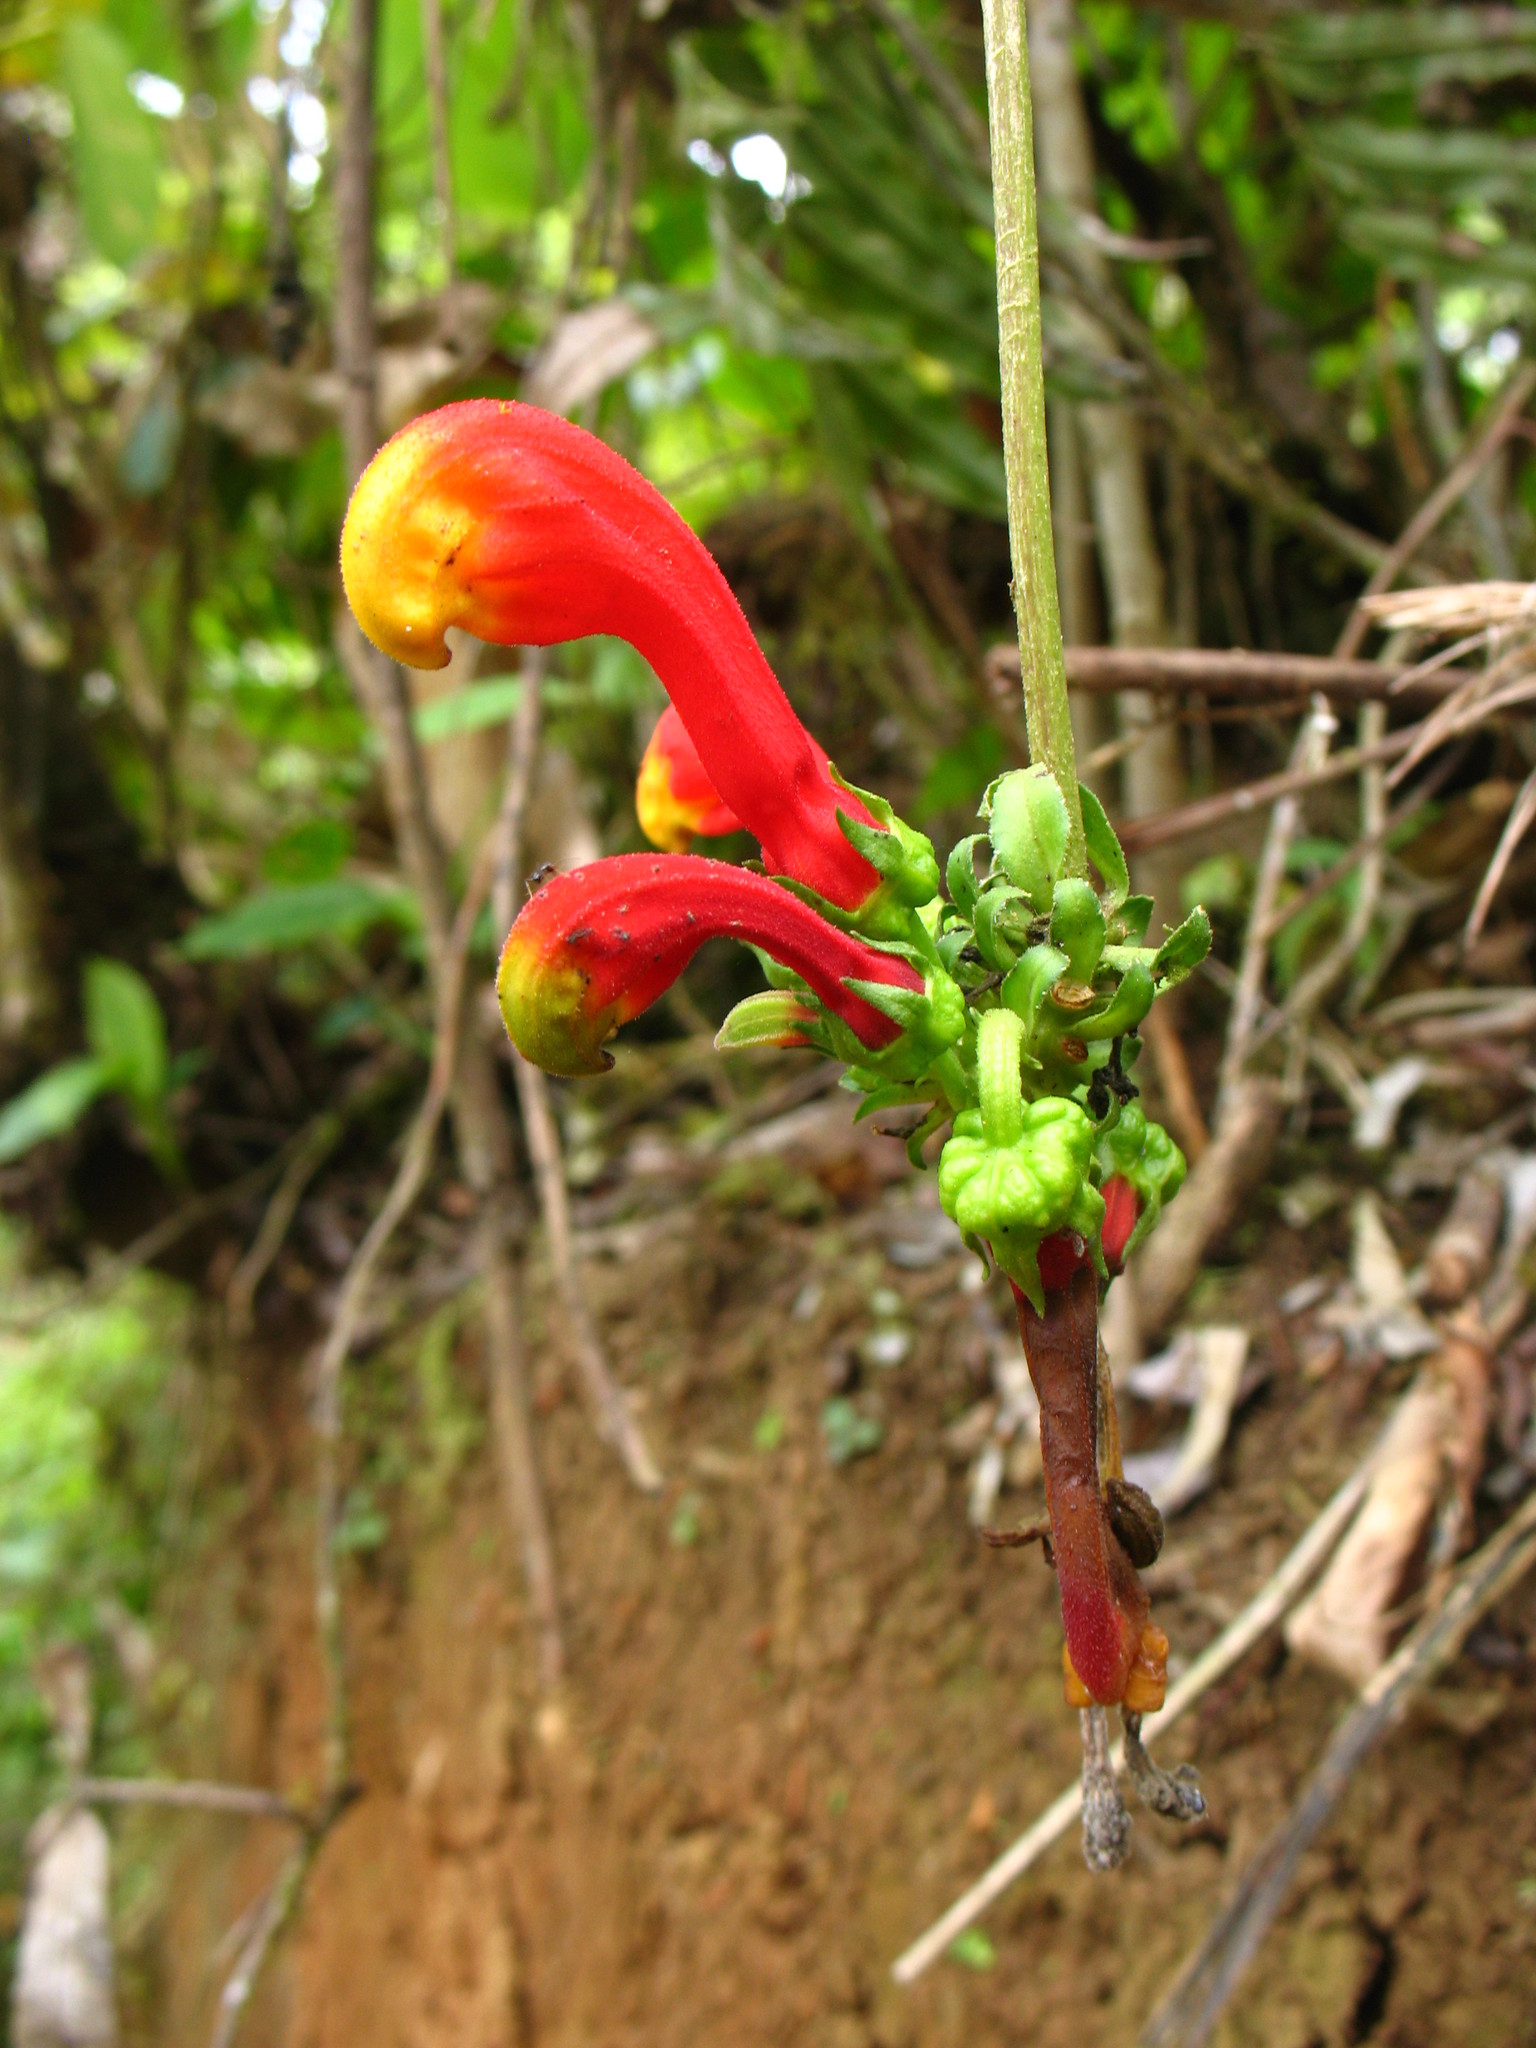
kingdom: Plantae
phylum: Tracheophyta
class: Magnoliopsida
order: Asterales
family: Campanulaceae
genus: Centropogon
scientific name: Centropogon granulosus
